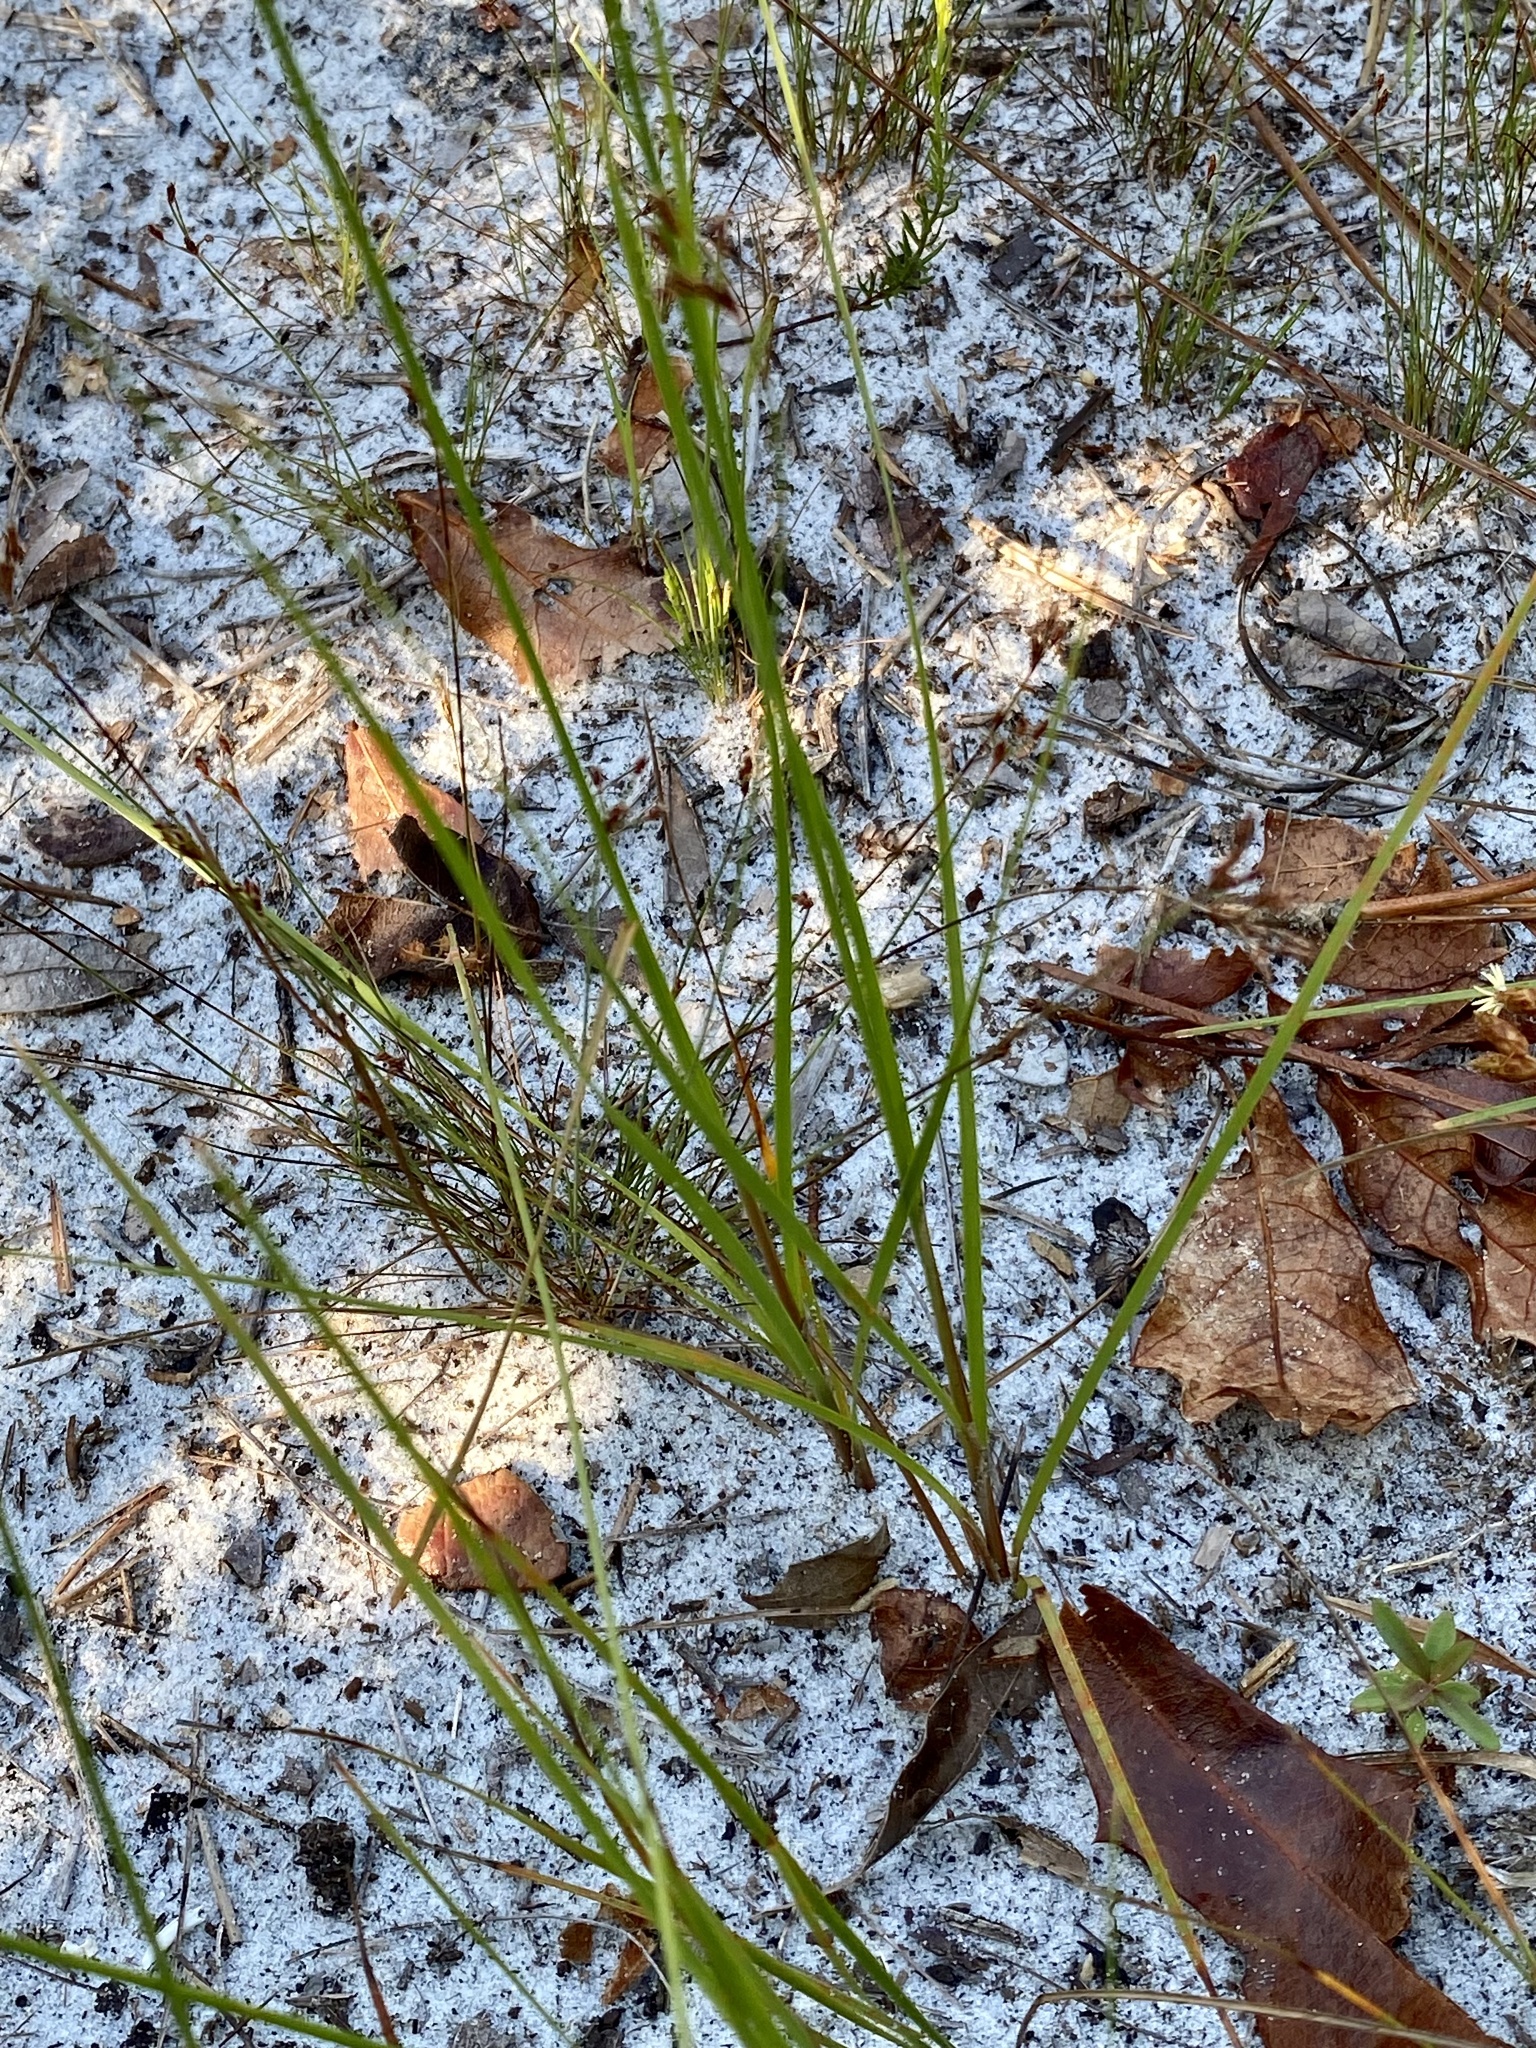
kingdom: Plantae
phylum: Tracheophyta
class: Liliopsida
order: Poales
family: Cyperaceae
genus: Fimbristylis
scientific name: Fimbristylis puberula
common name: Hairy fimbristylis
